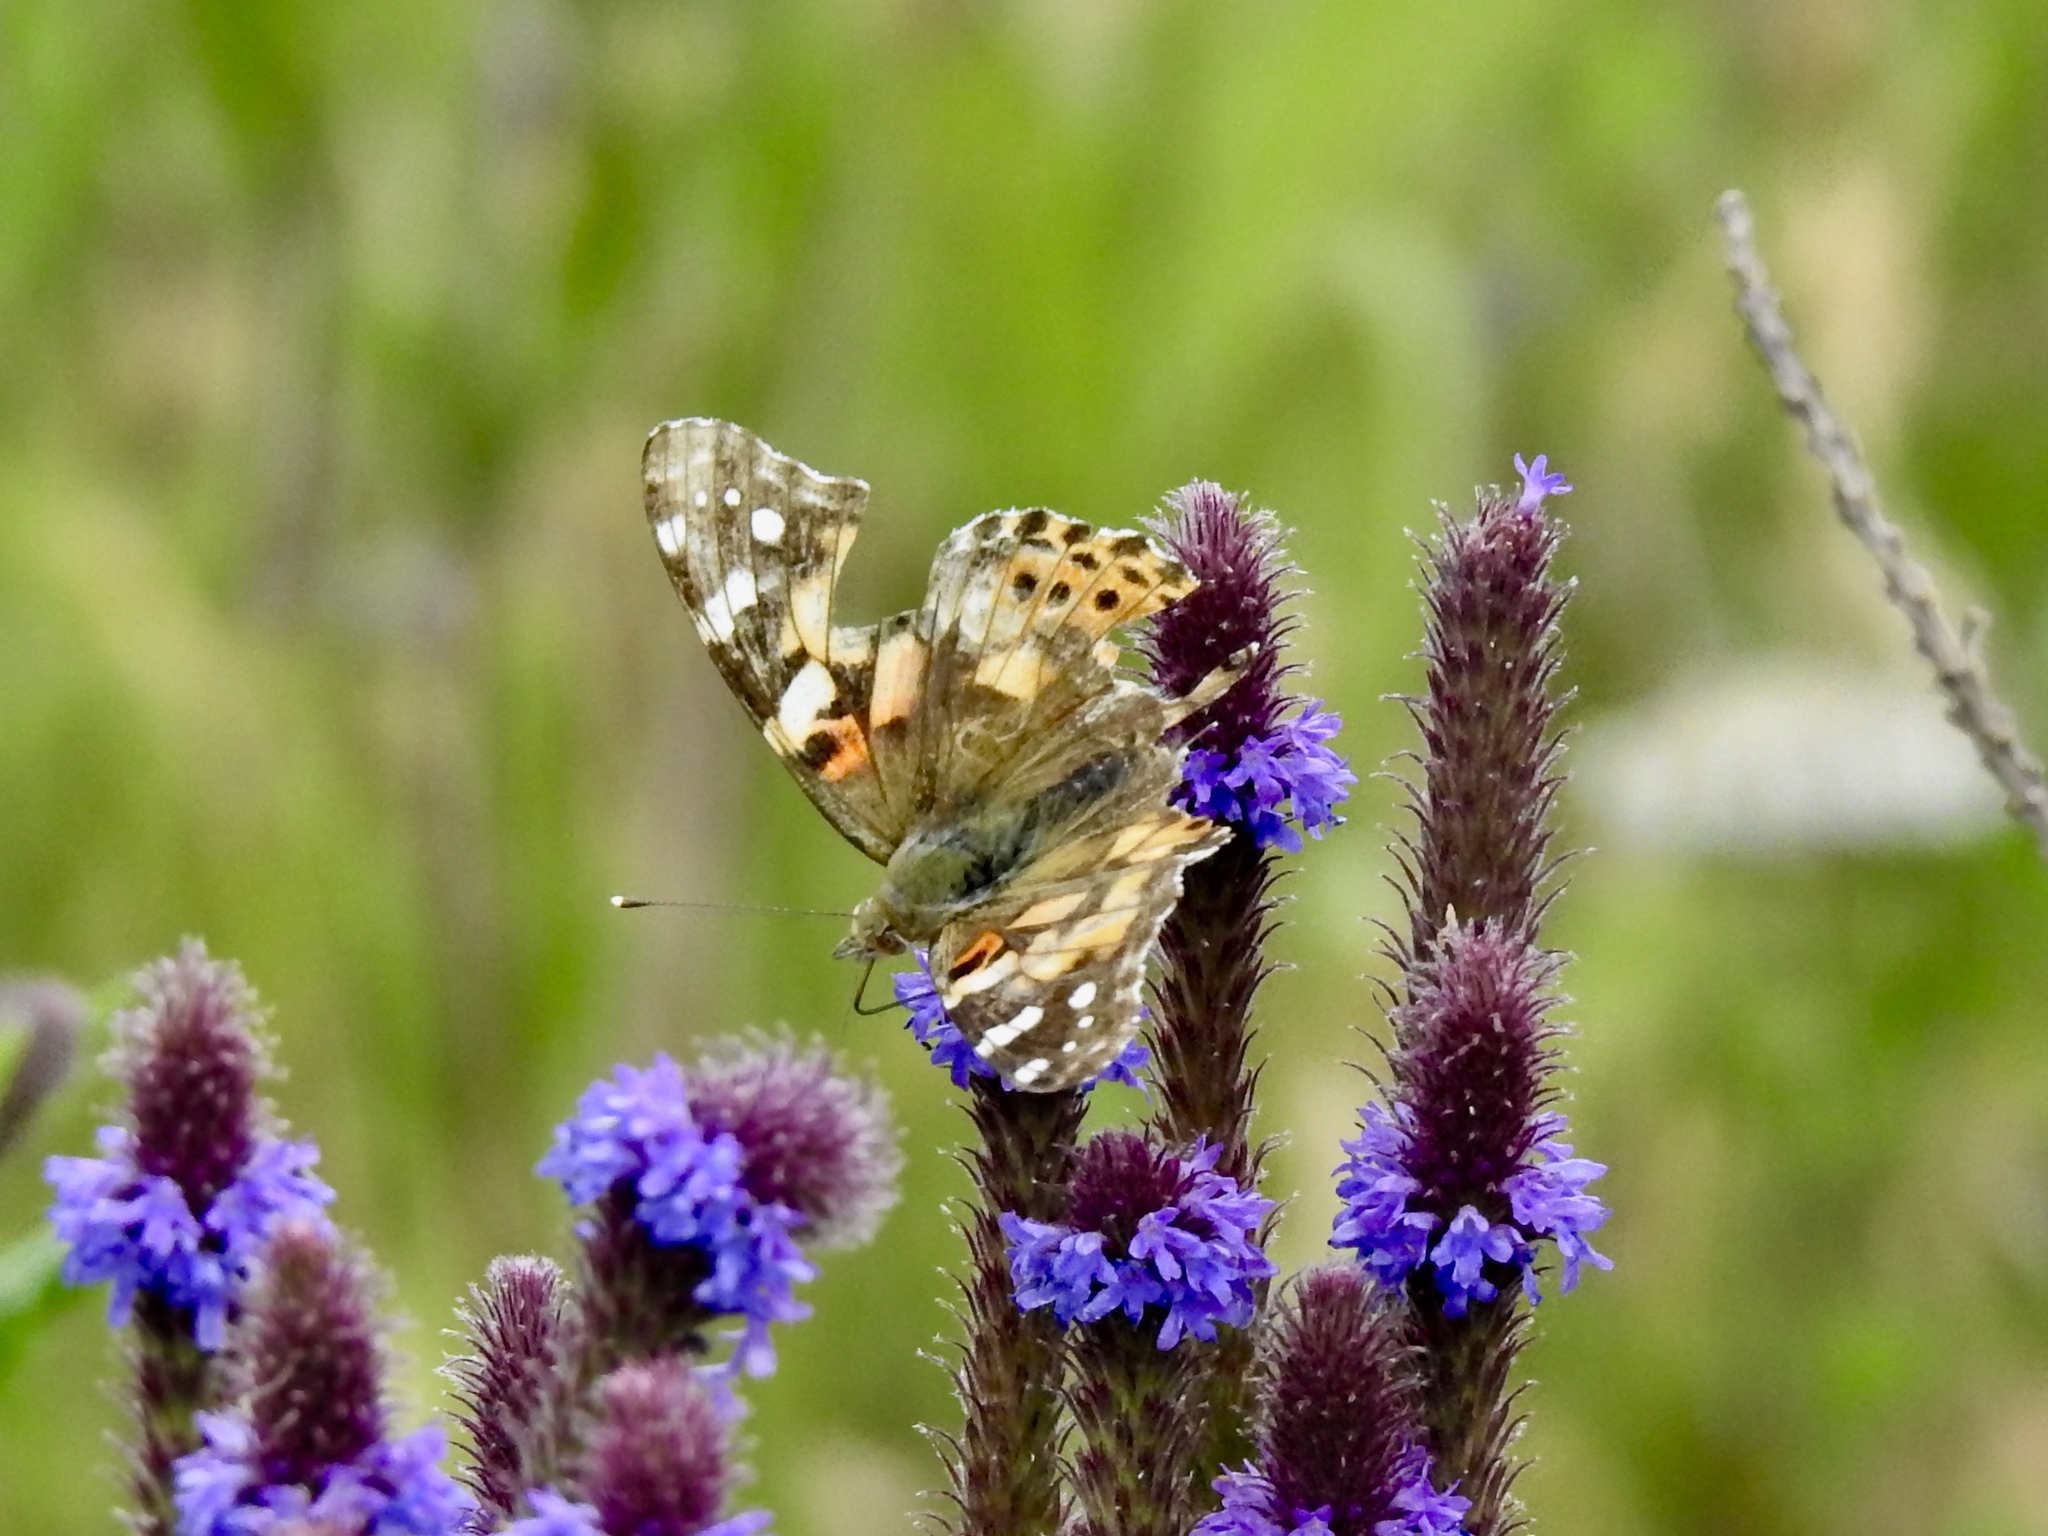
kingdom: Animalia
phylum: Arthropoda
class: Insecta
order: Lepidoptera
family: Nymphalidae
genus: Vanessa
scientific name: Vanessa cardui
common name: Painted lady
